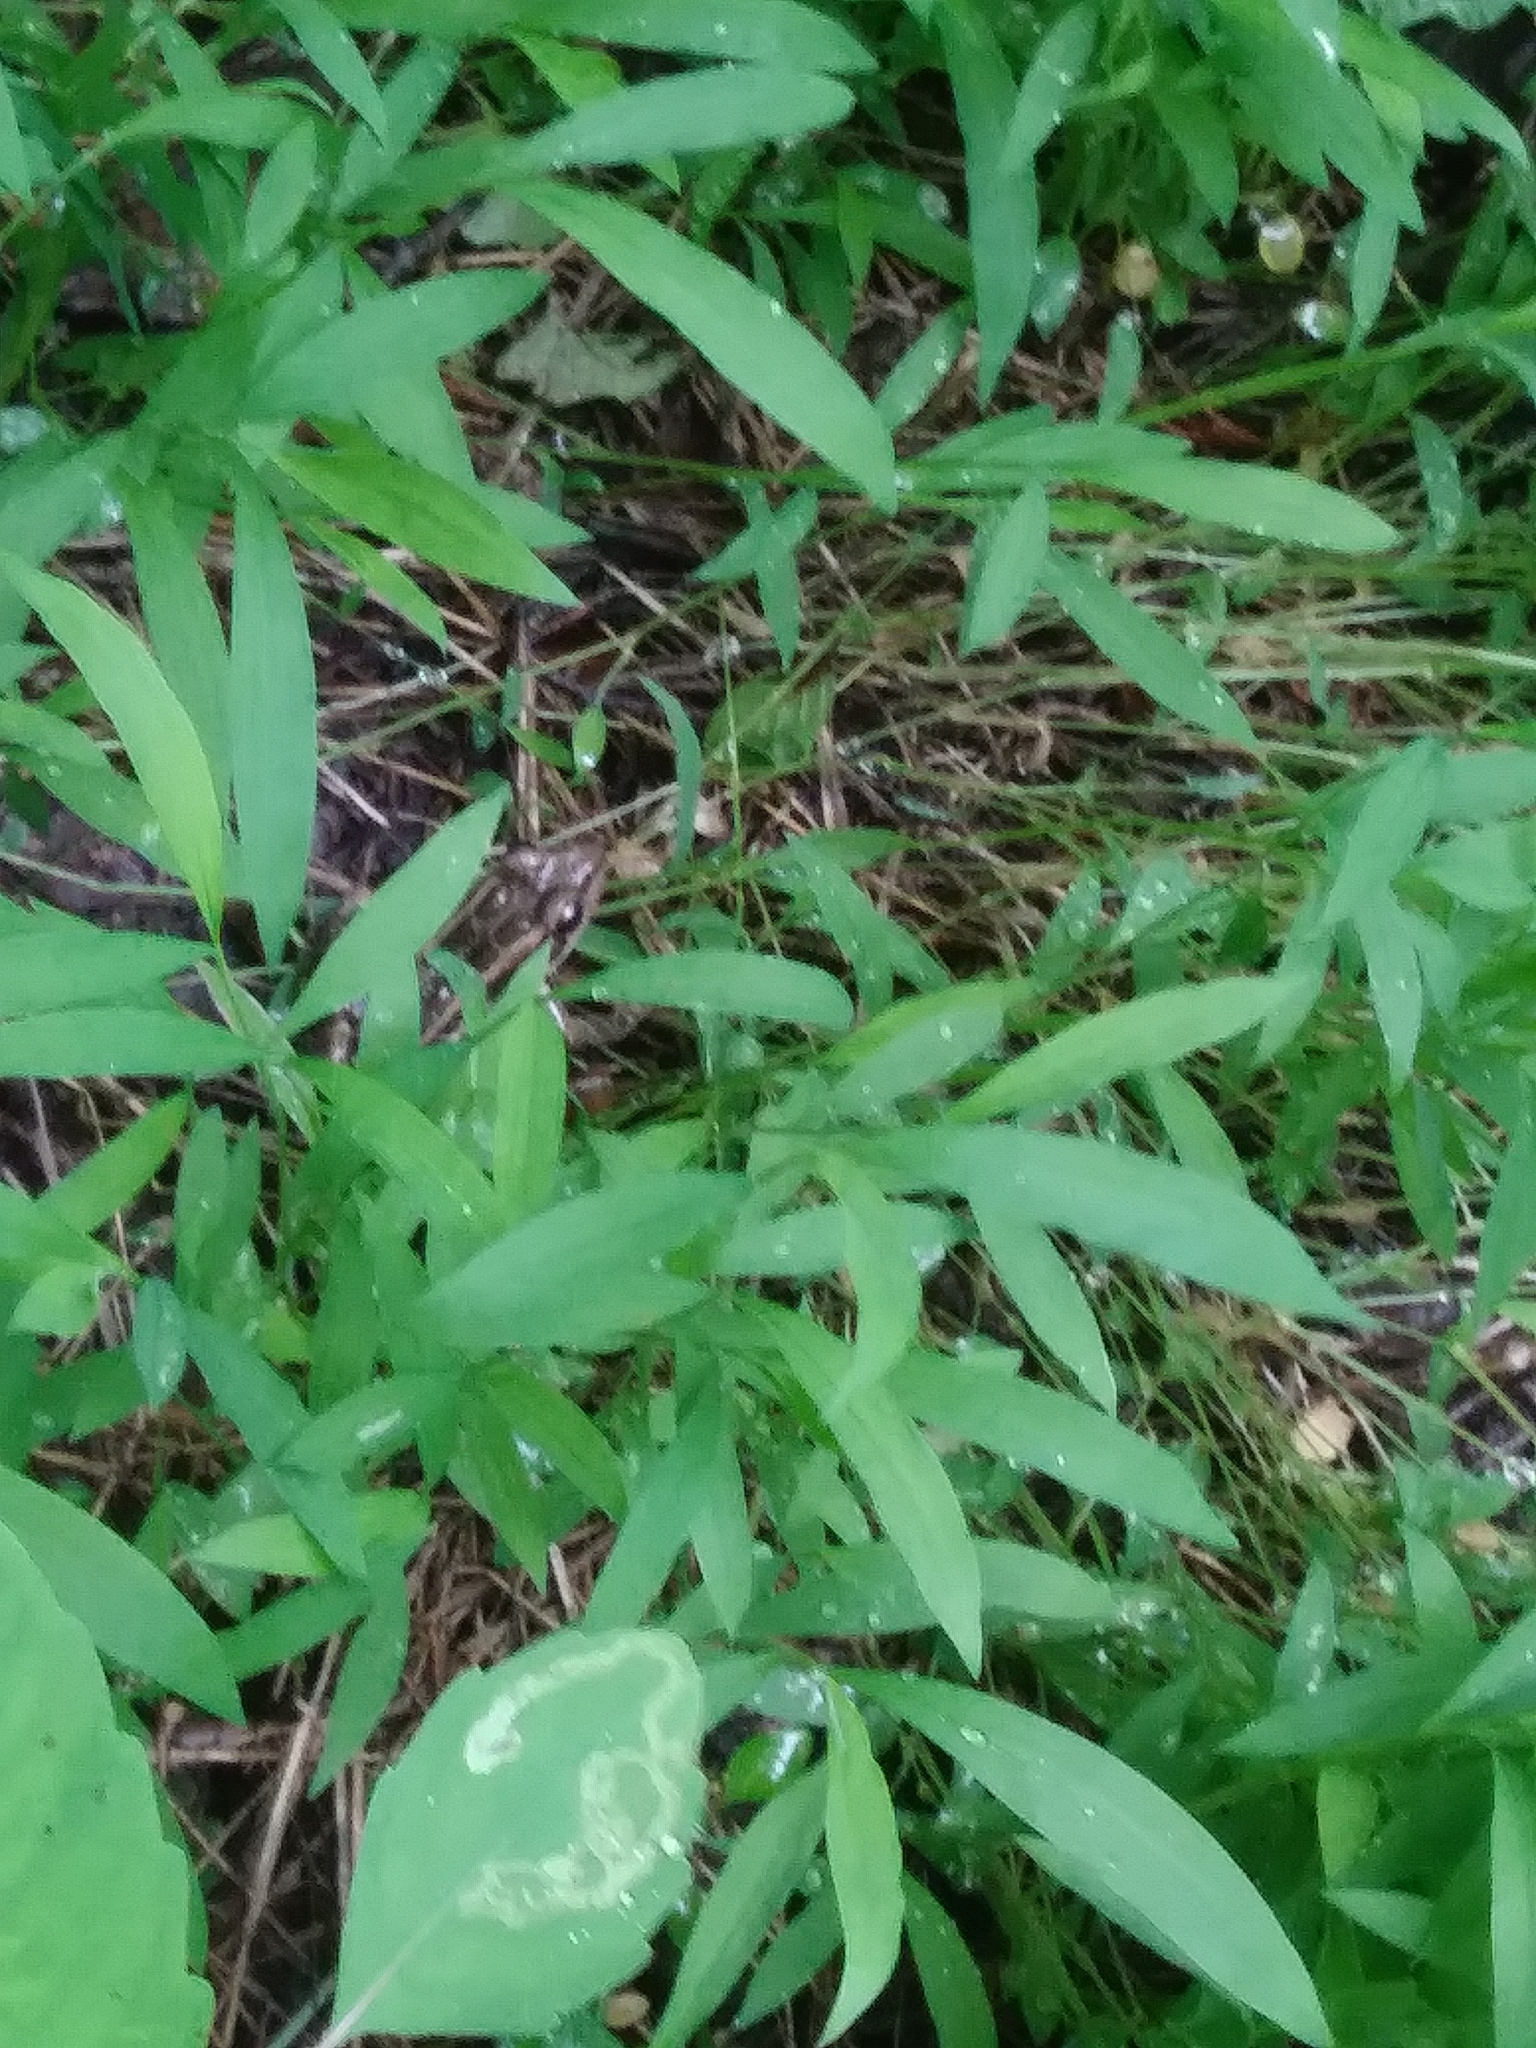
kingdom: Animalia
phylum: Chordata
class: Amphibia
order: Anura
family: Ranidae
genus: Lithobates
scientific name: Lithobates palustris
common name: Pickerel frog
